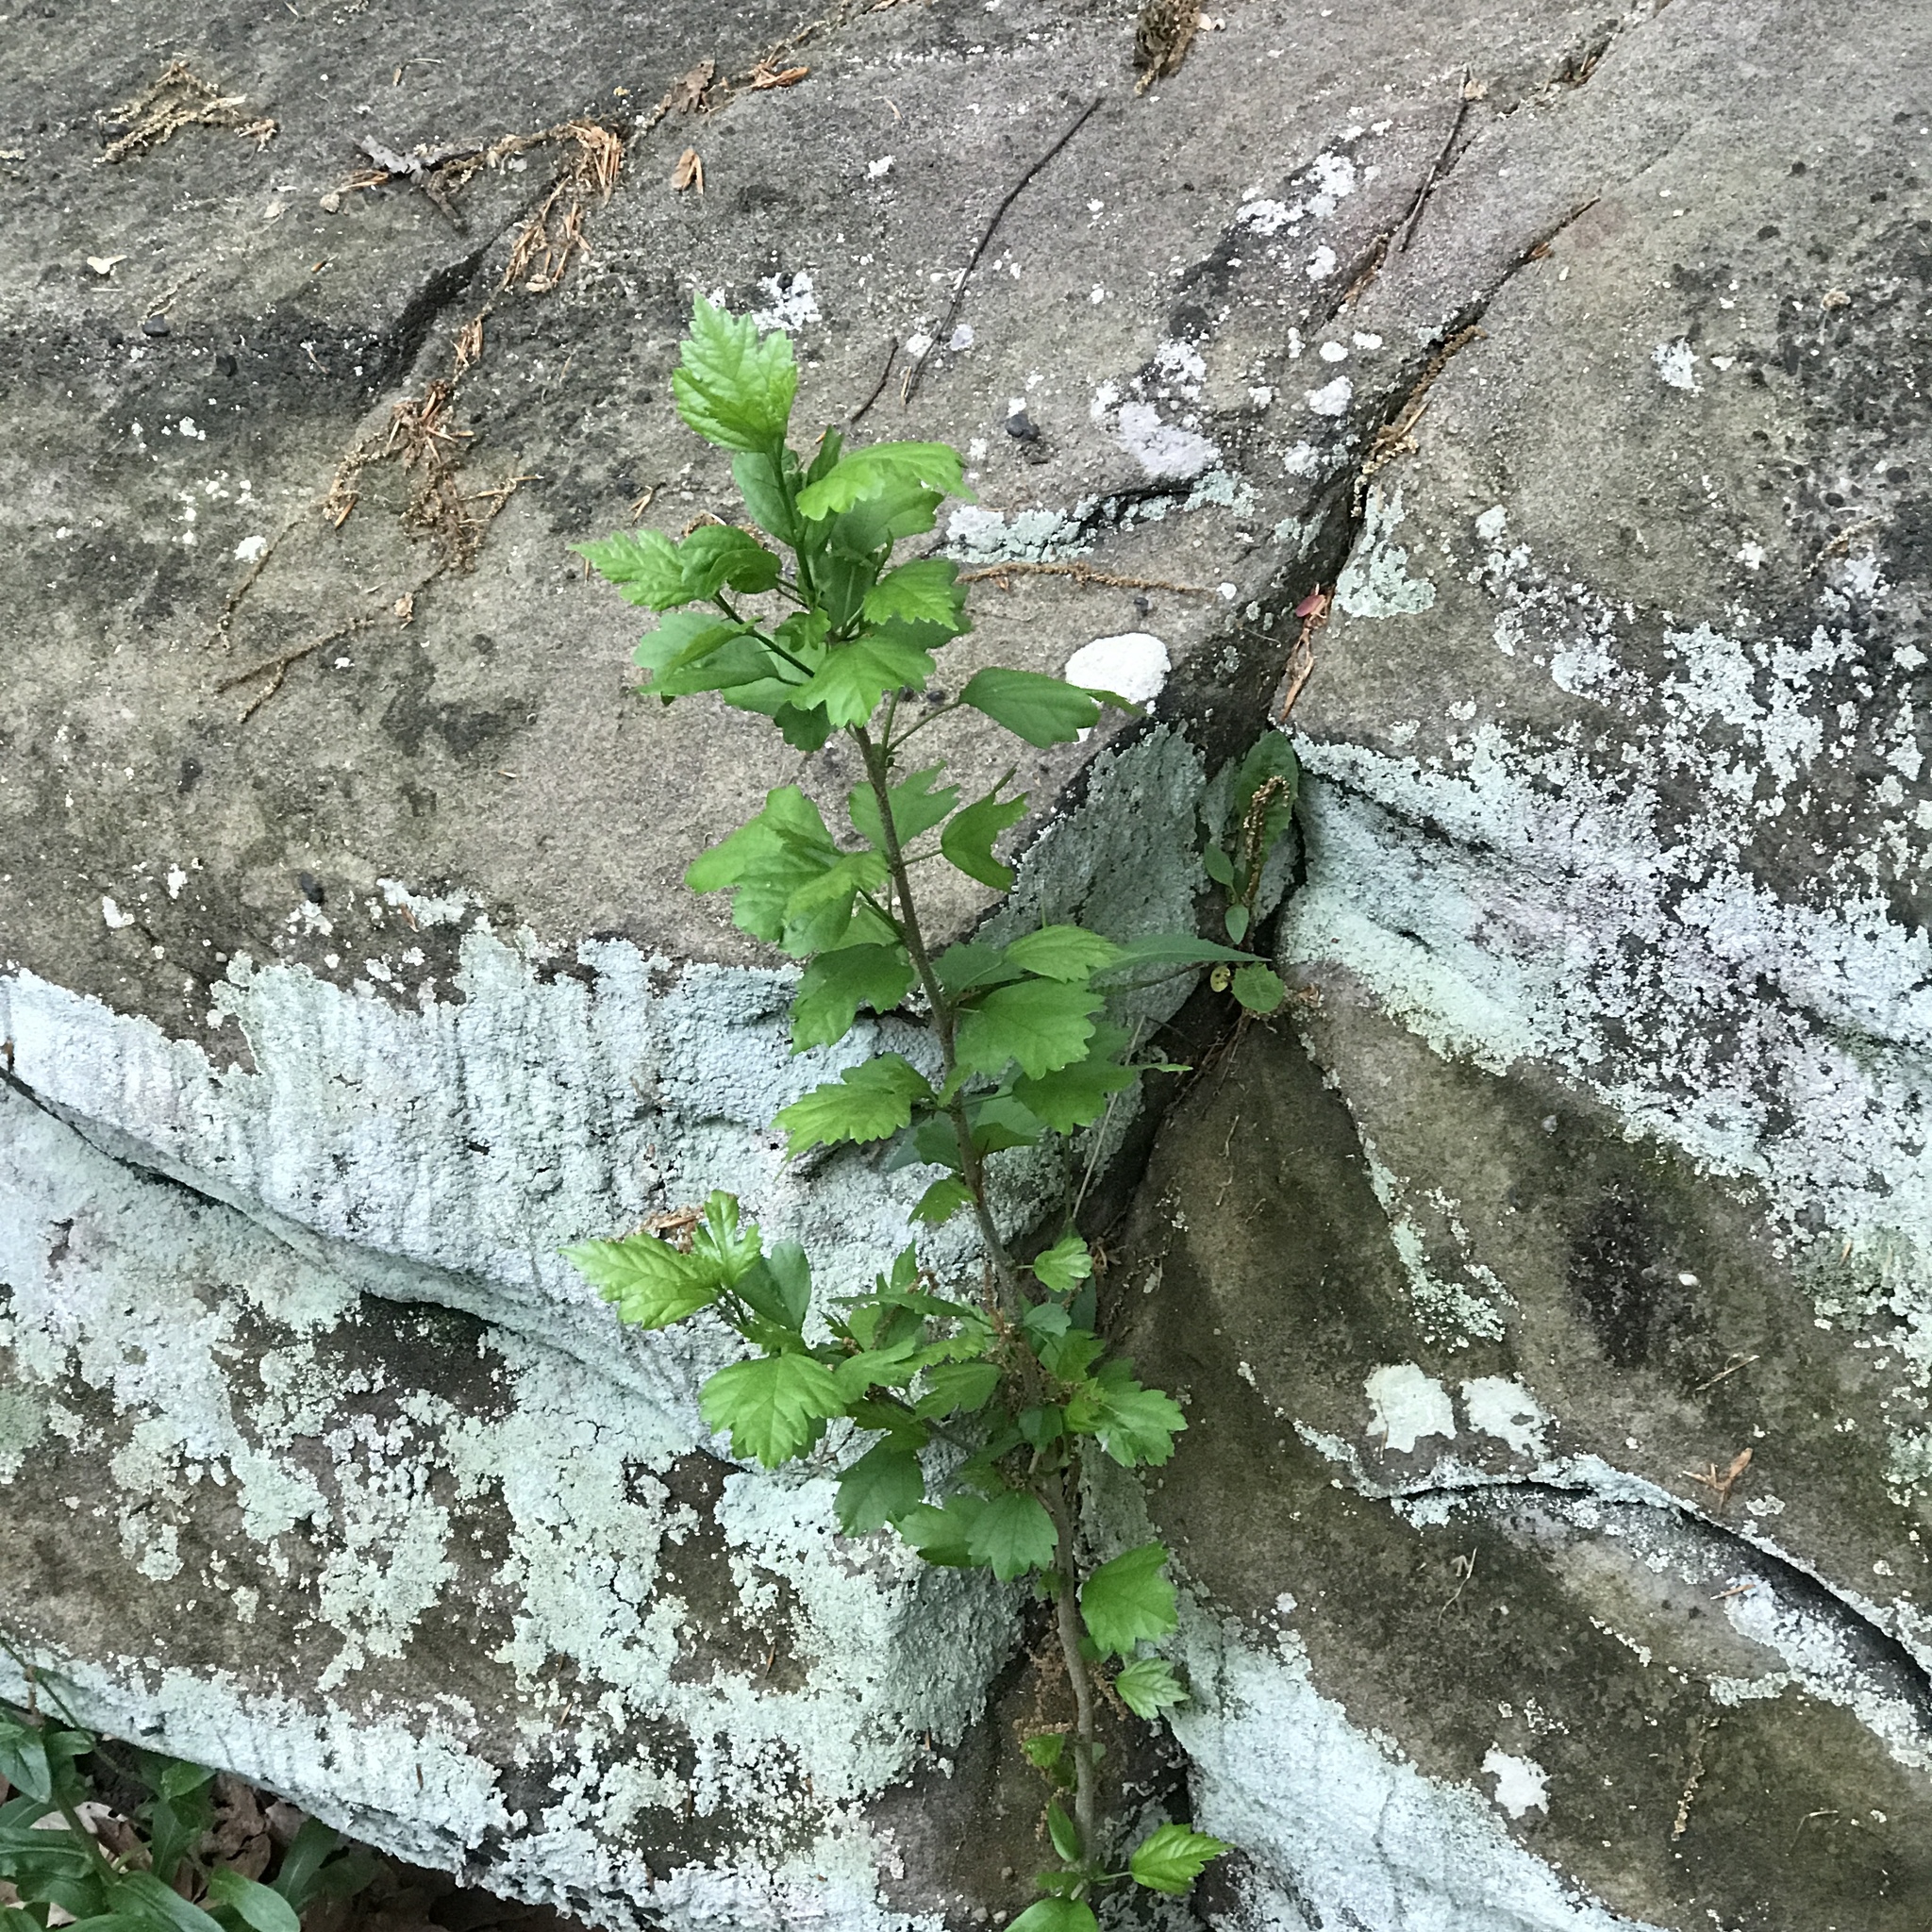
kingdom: Plantae
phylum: Tracheophyta
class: Magnoliopsida
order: Malvales
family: Malvaceae
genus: Hibiscus
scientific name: Hibiscus syriacus
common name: Syrian ketmia
